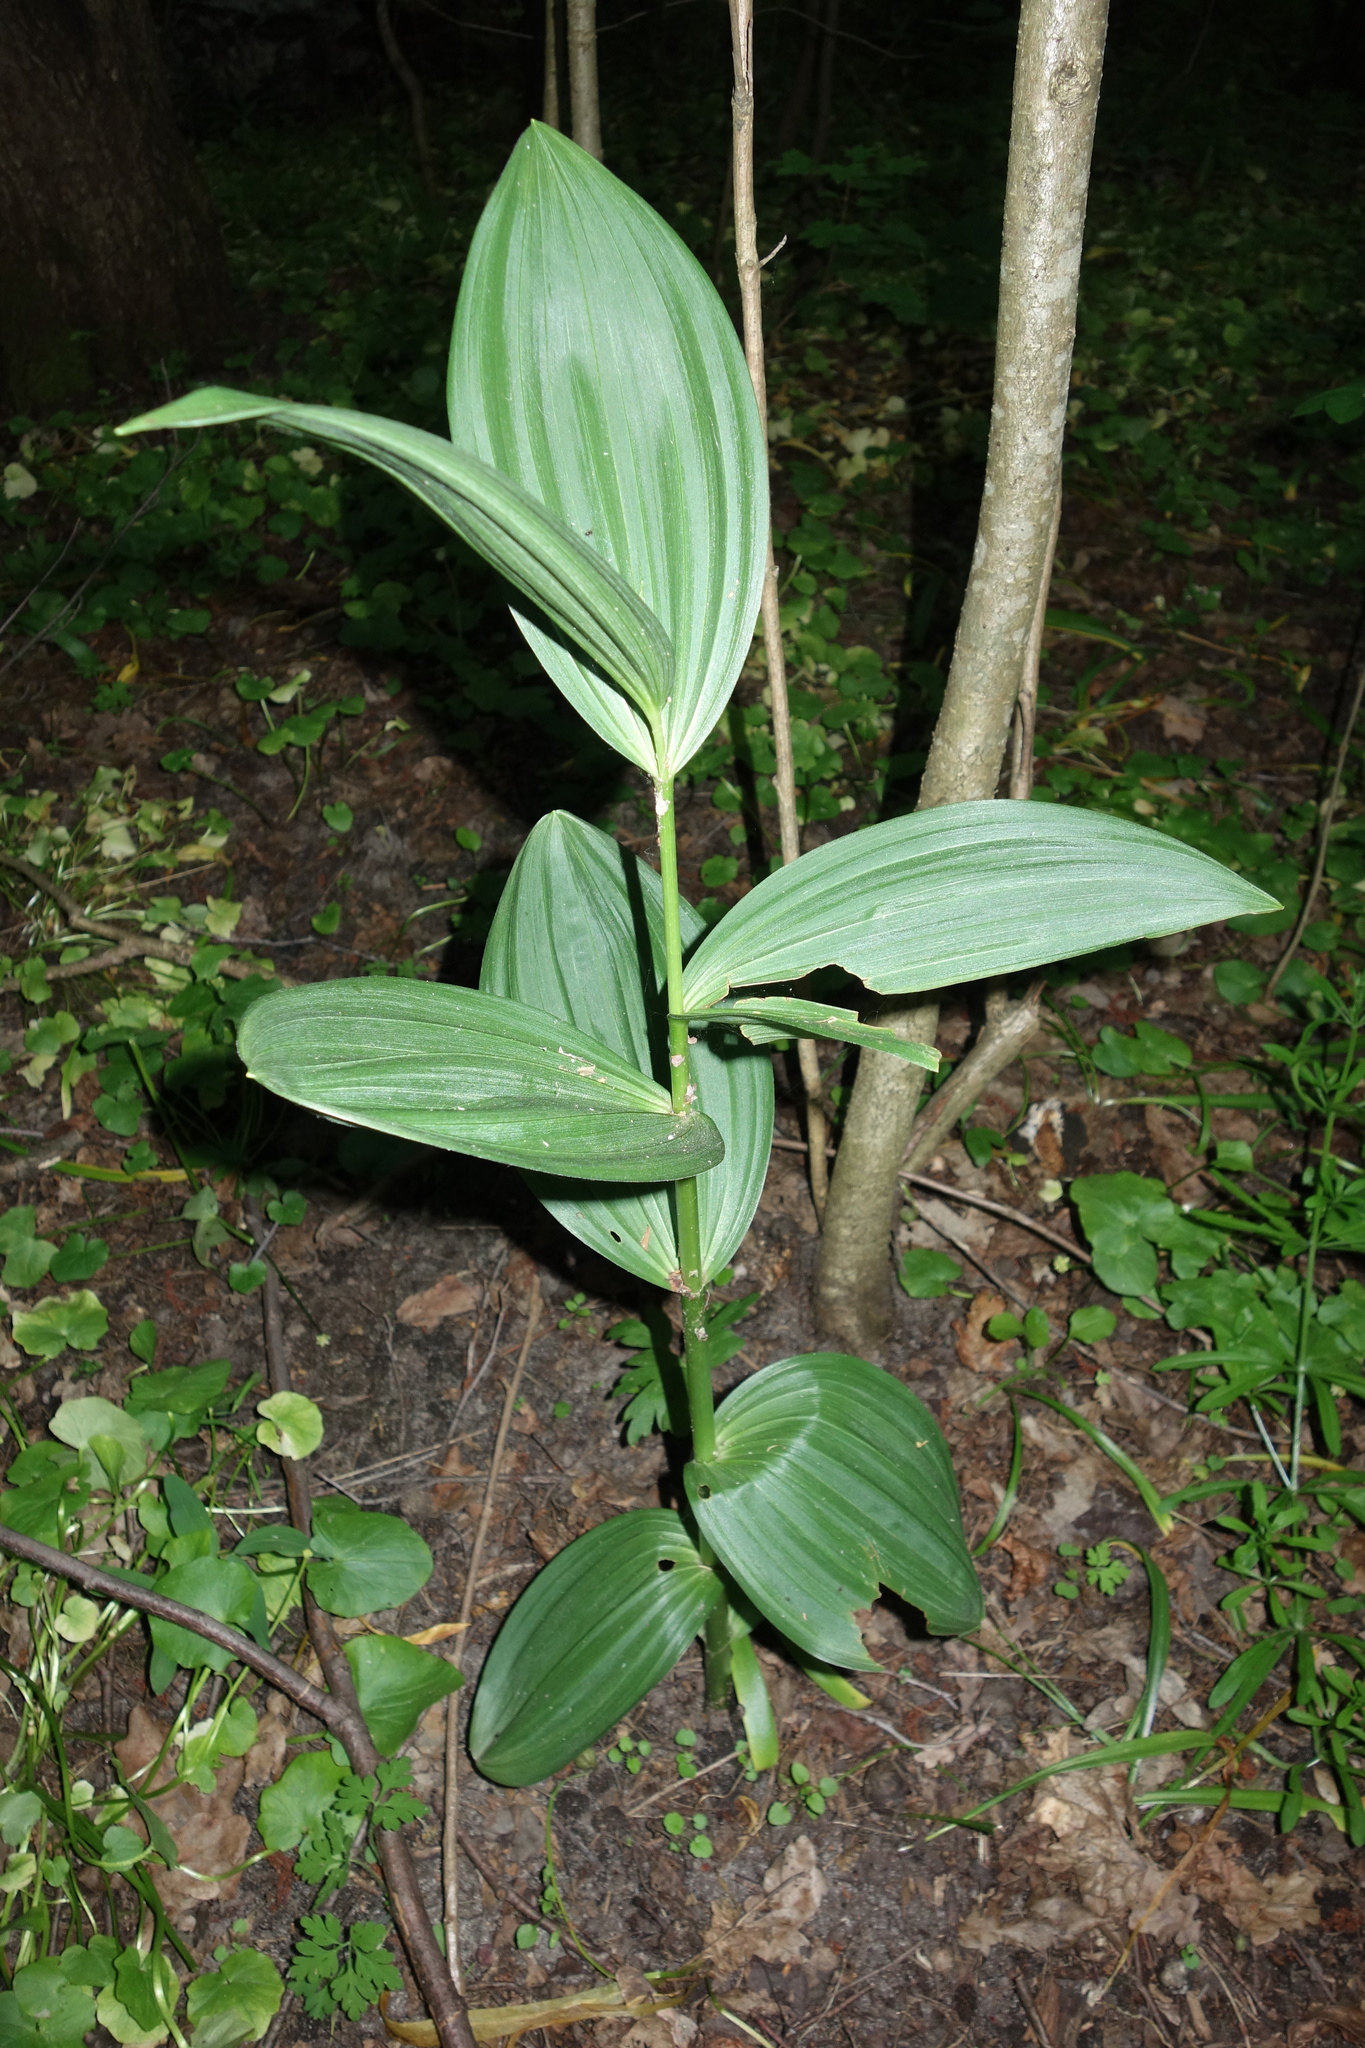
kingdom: Plantae
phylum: Tracheophyta
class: Liliopsida
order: Liliales
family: Melanthiaceae
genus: Veratrum
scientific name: Veratrum lobelianum
